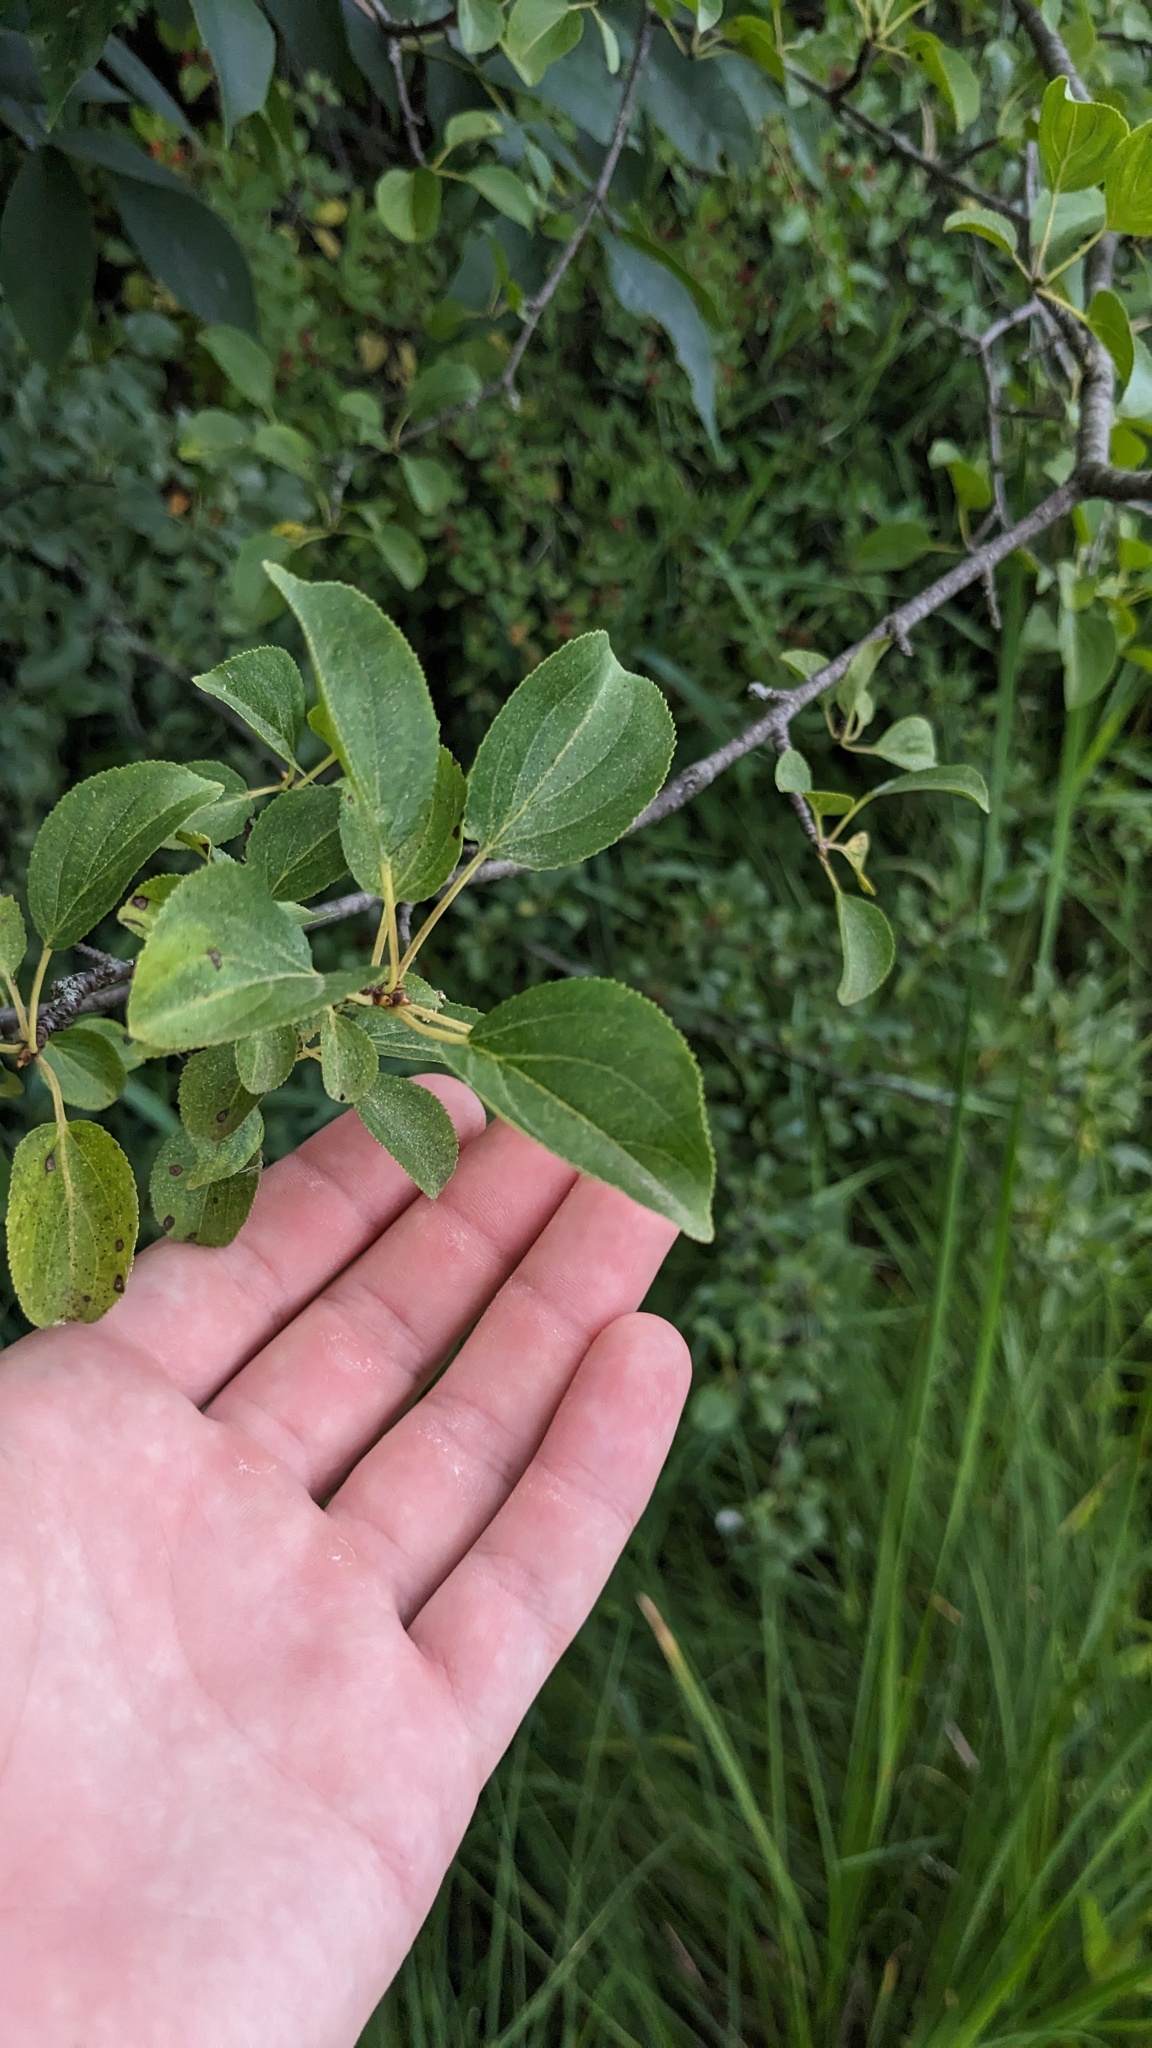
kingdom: Plantae
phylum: Tracheophyta
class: Magnoliopsida
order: Rosales
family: Rhamnaceae
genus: Rhamnus
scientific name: Rhamnus cathartica
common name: Common buckthorn
